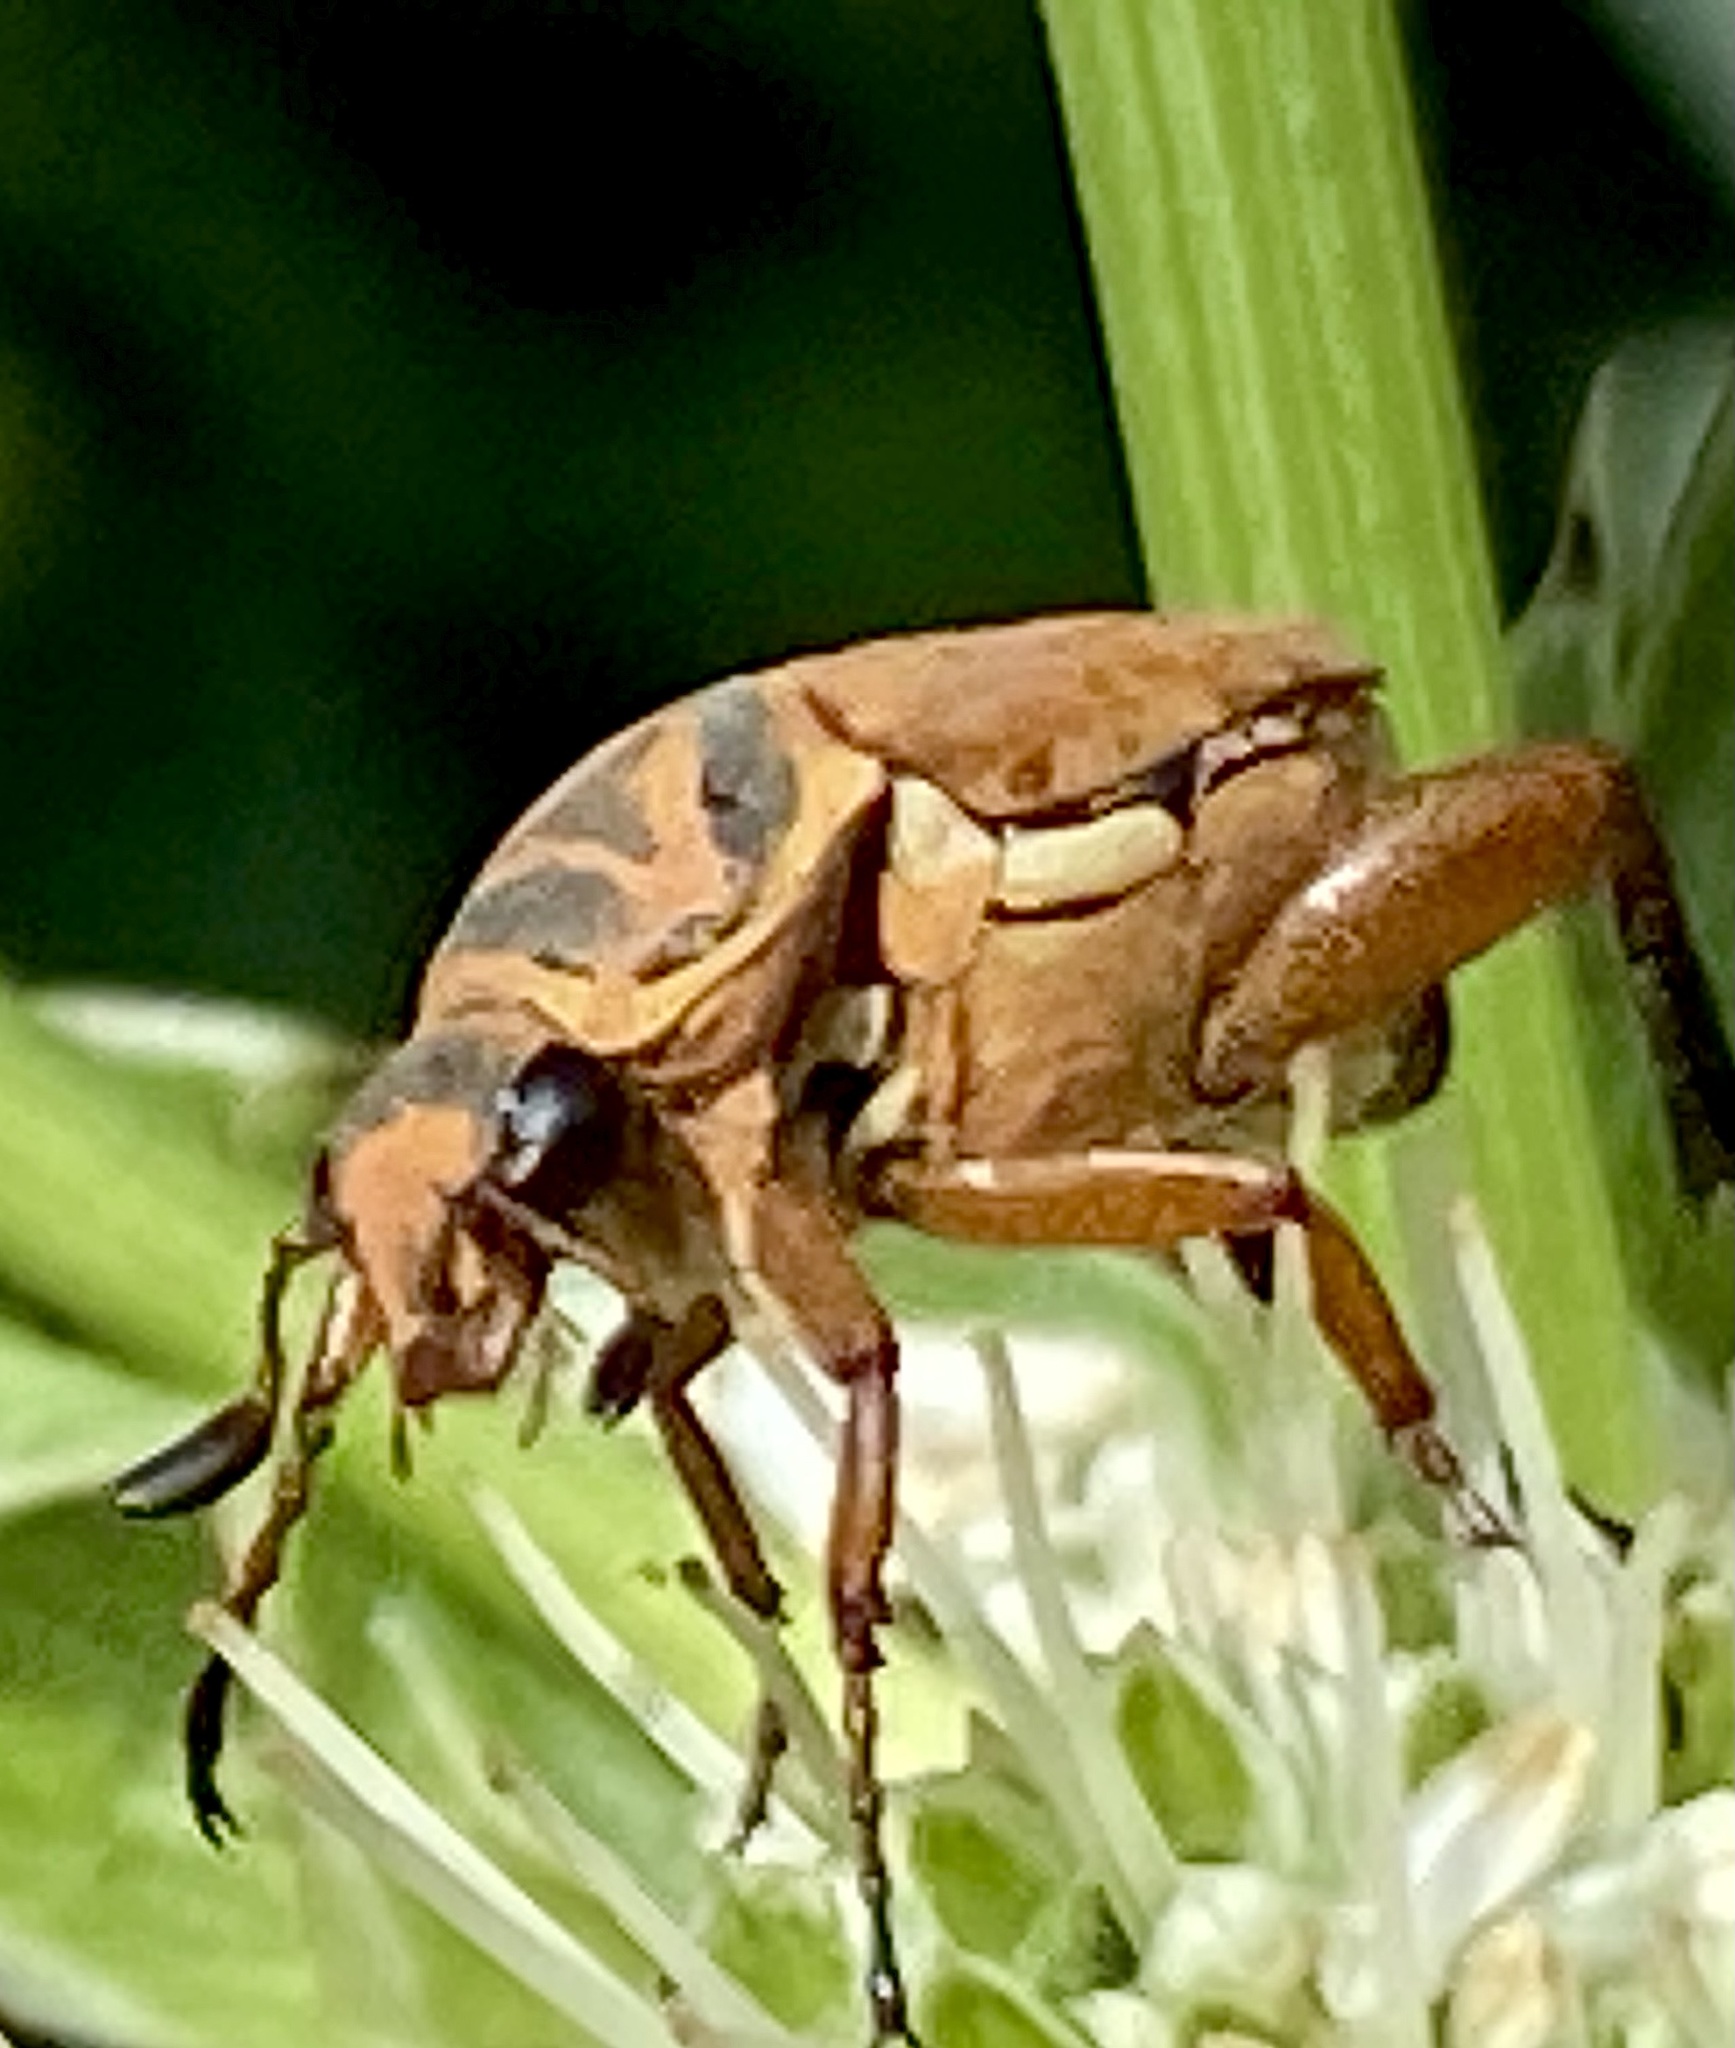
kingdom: Animalia
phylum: Arthropoda
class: Insecta
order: Coleoptera
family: Scarabaeidae
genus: Trigonopeltastes
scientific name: Trigonopeltastes delta
